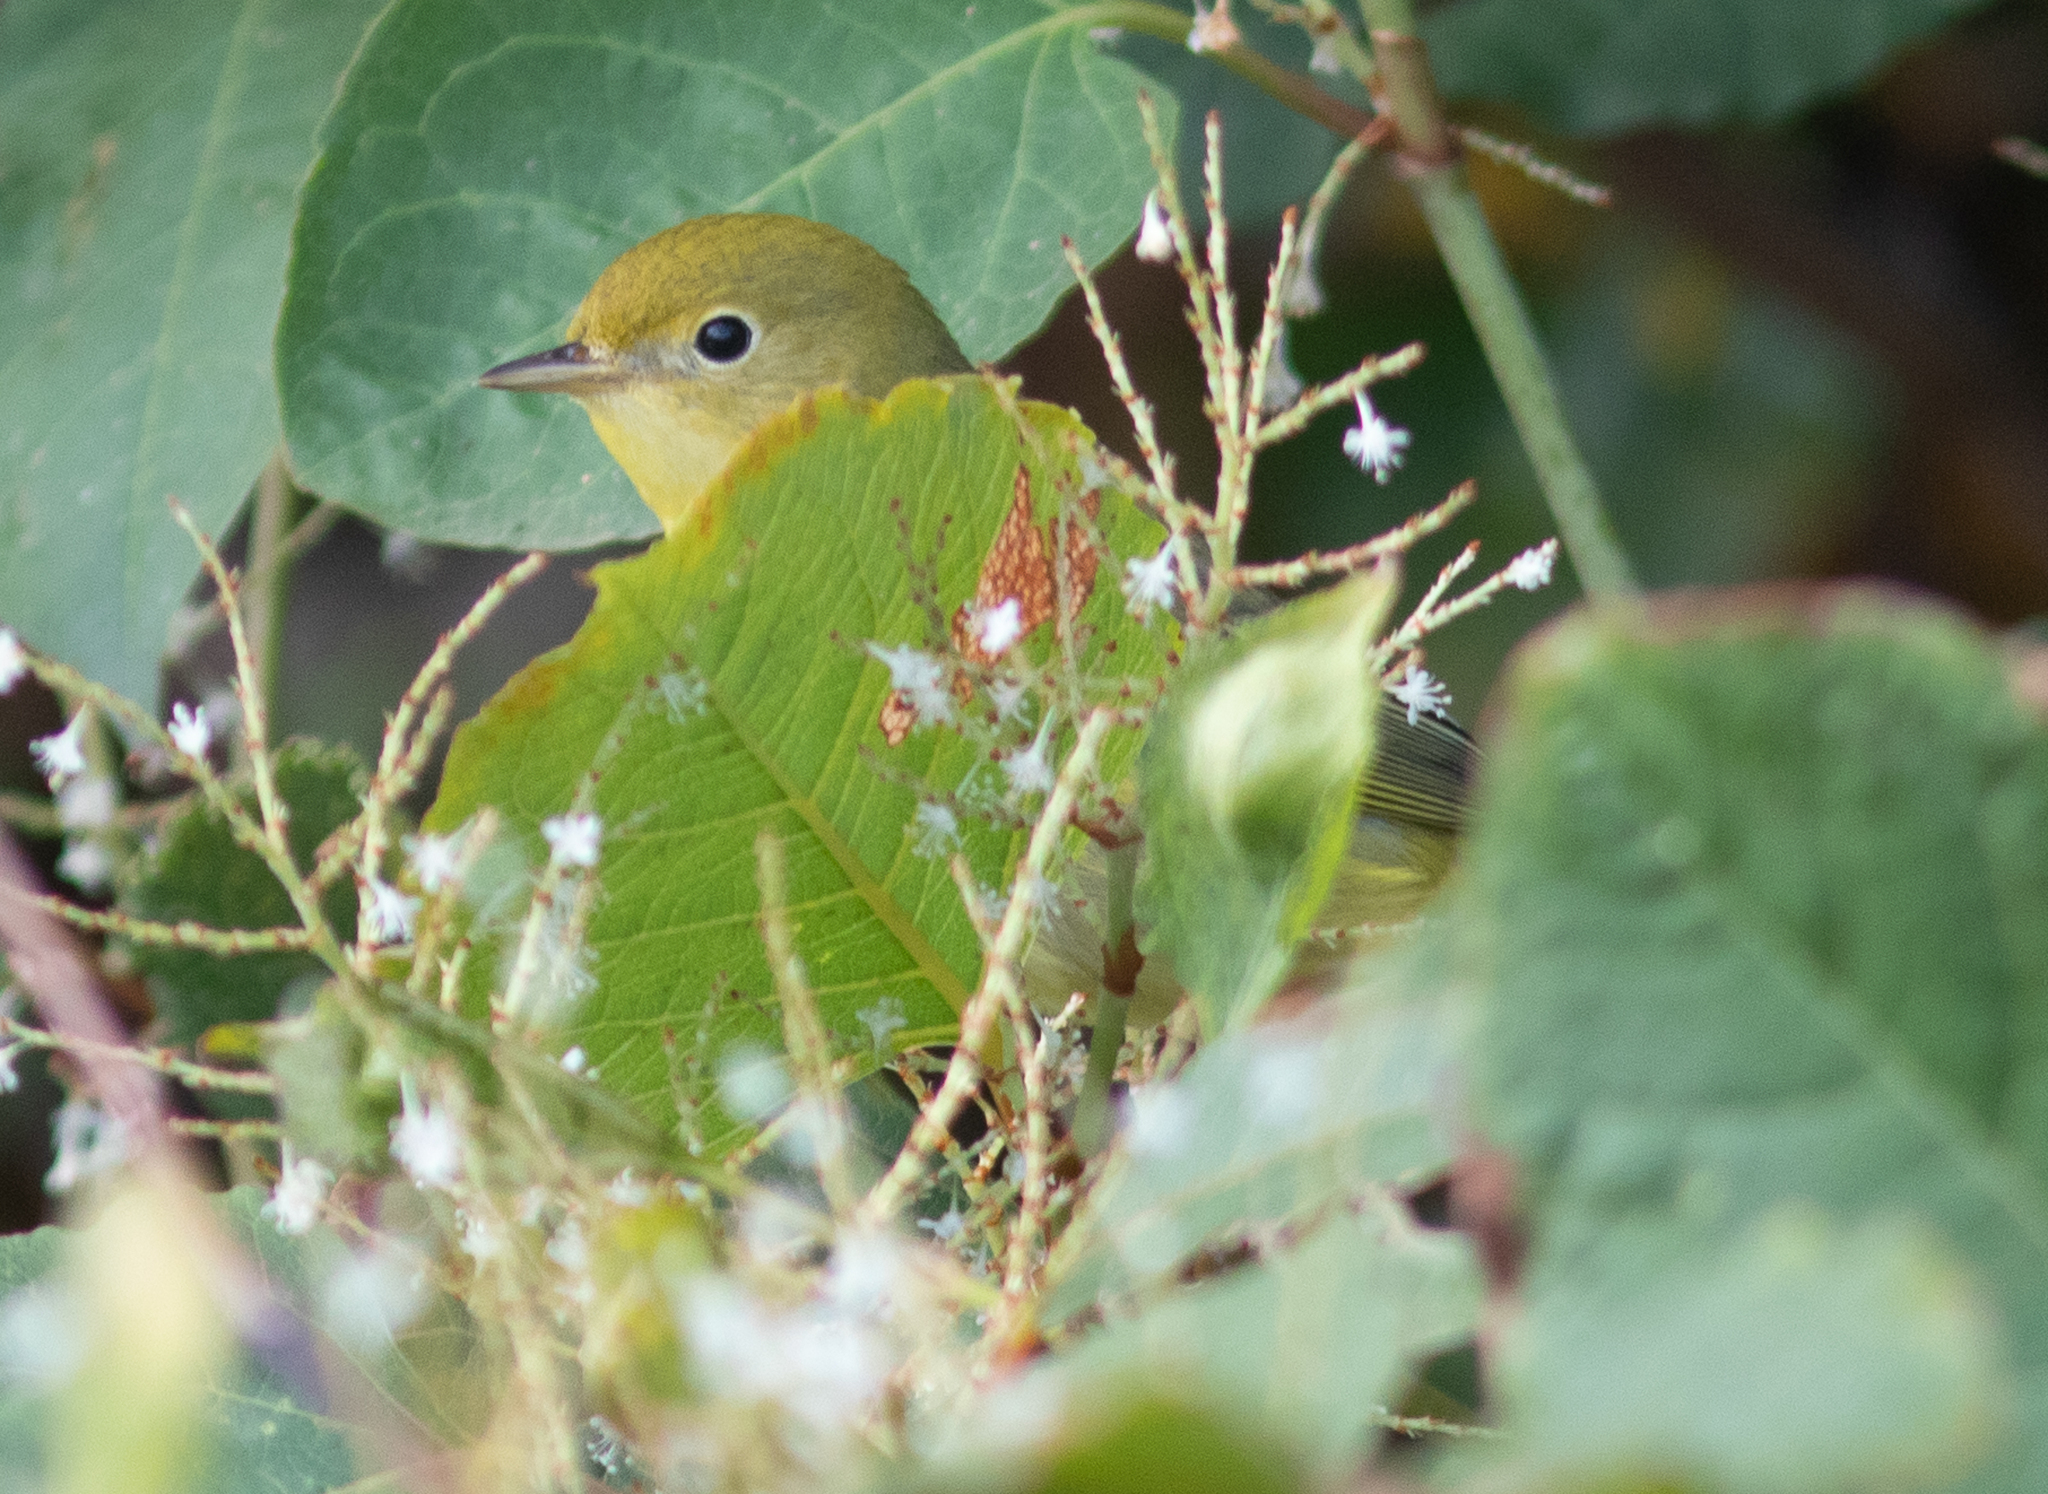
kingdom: Animalia
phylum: Chordata
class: Aves
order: Passeriformes
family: Parulidae
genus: Setophaga
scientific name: Setophaga petechia
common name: Yellow warbler
